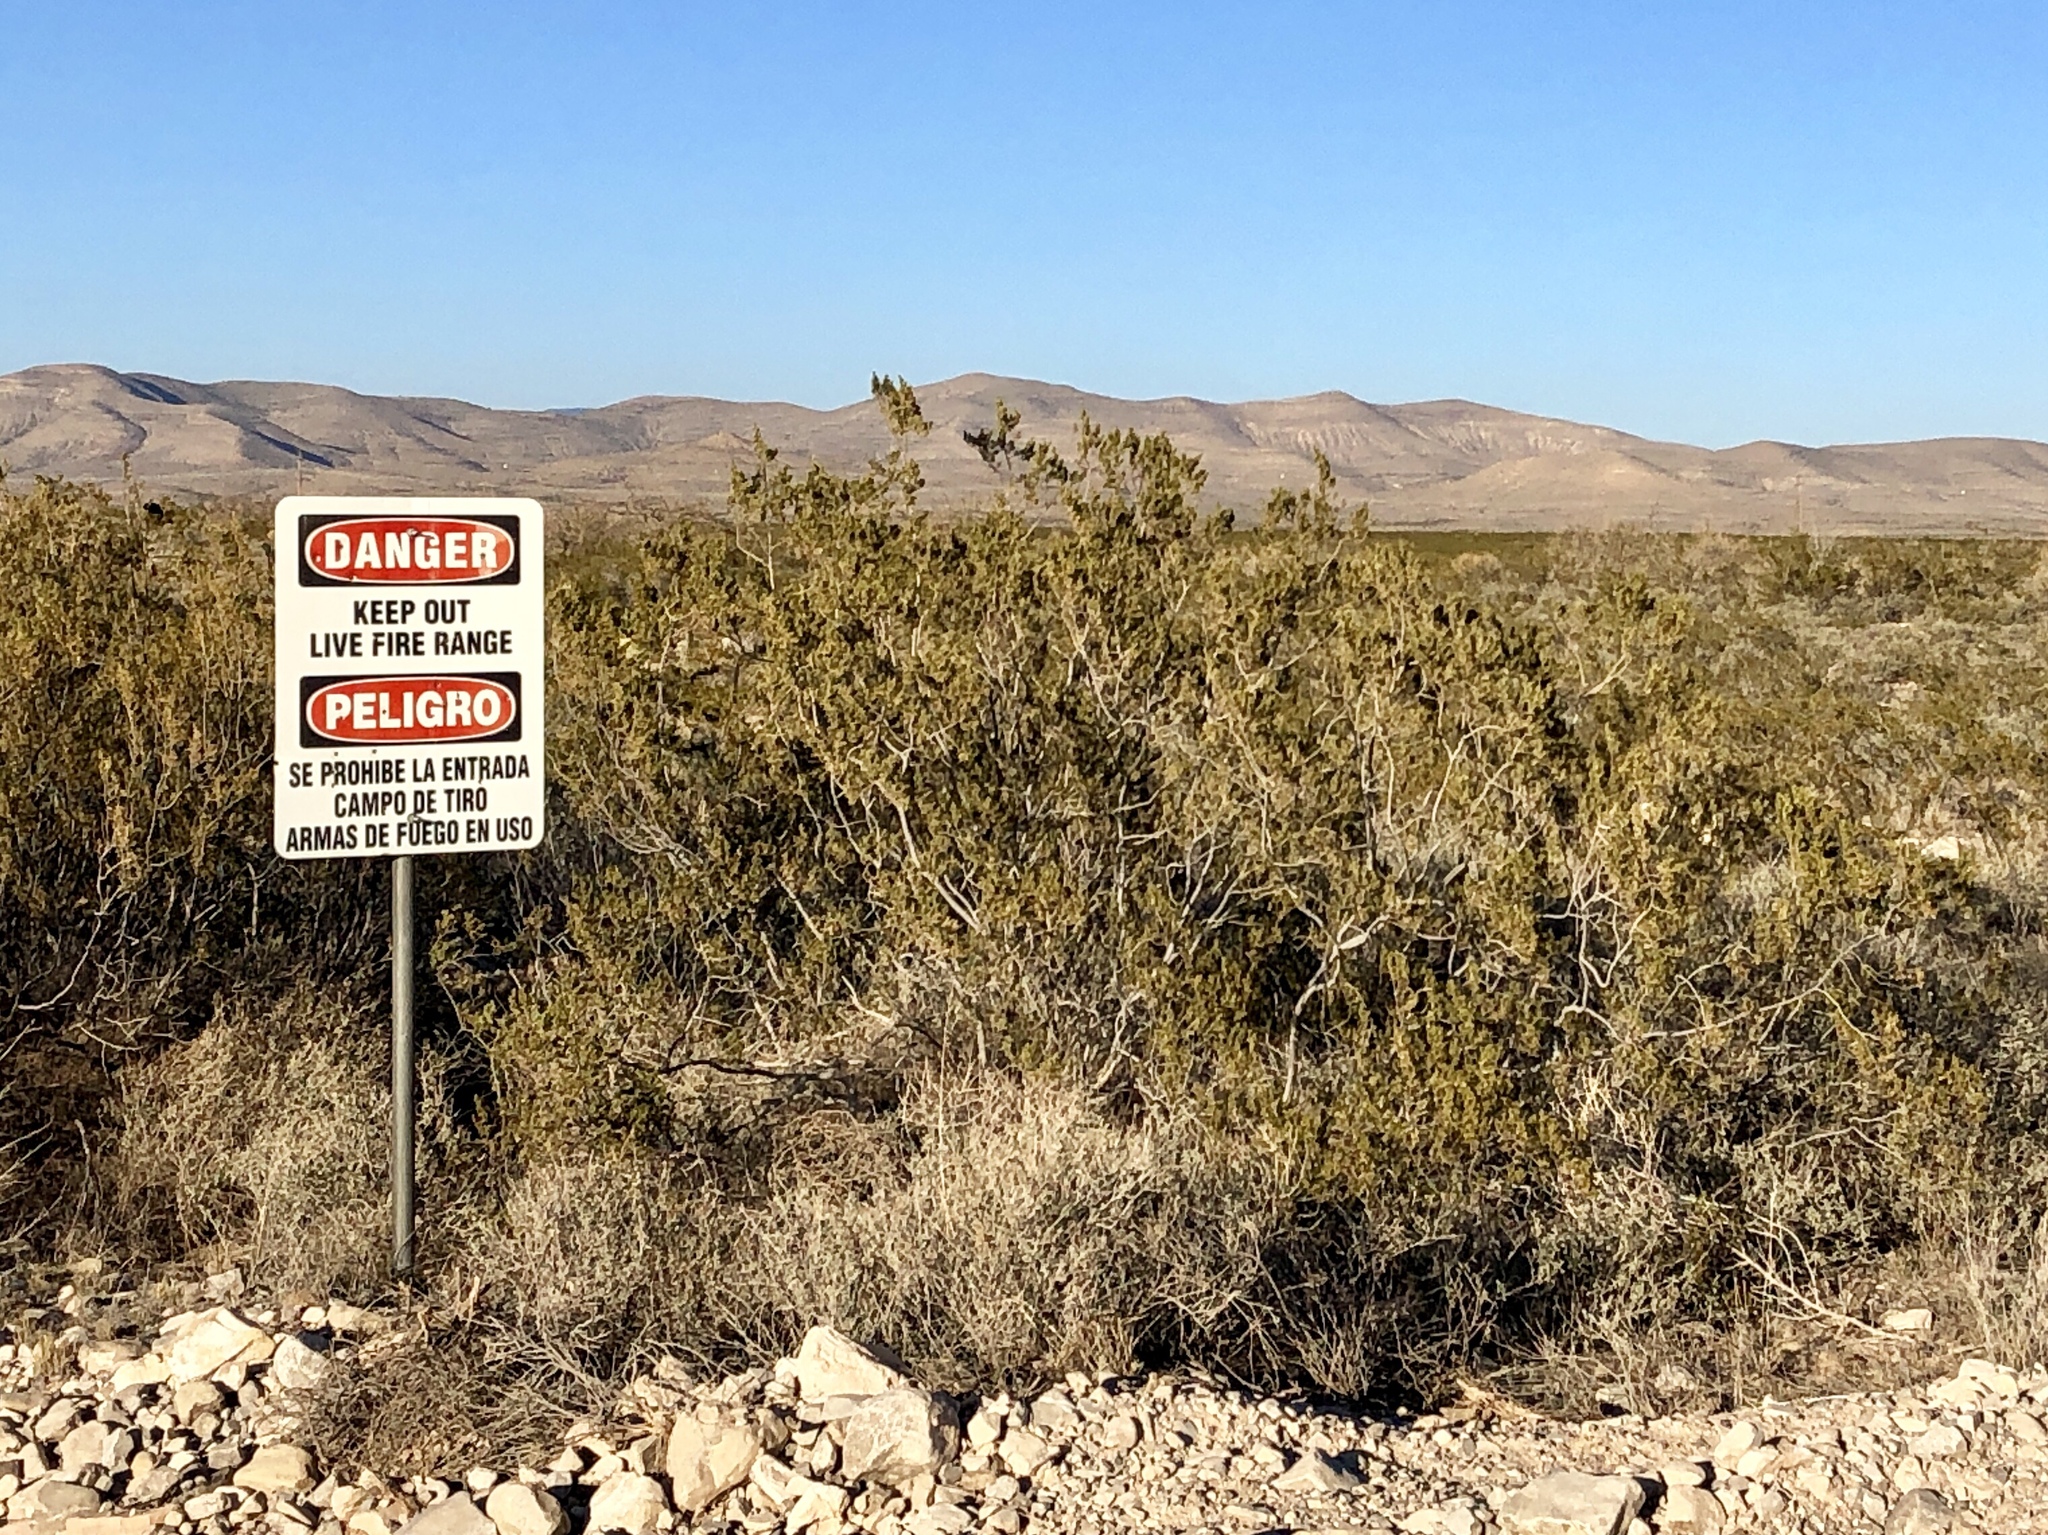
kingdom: Plantae
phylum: Tracheophyta
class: Magnoliopsida
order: Zygophyllales
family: Zygophyllaceae
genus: Larrea
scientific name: Larrea tridentata
